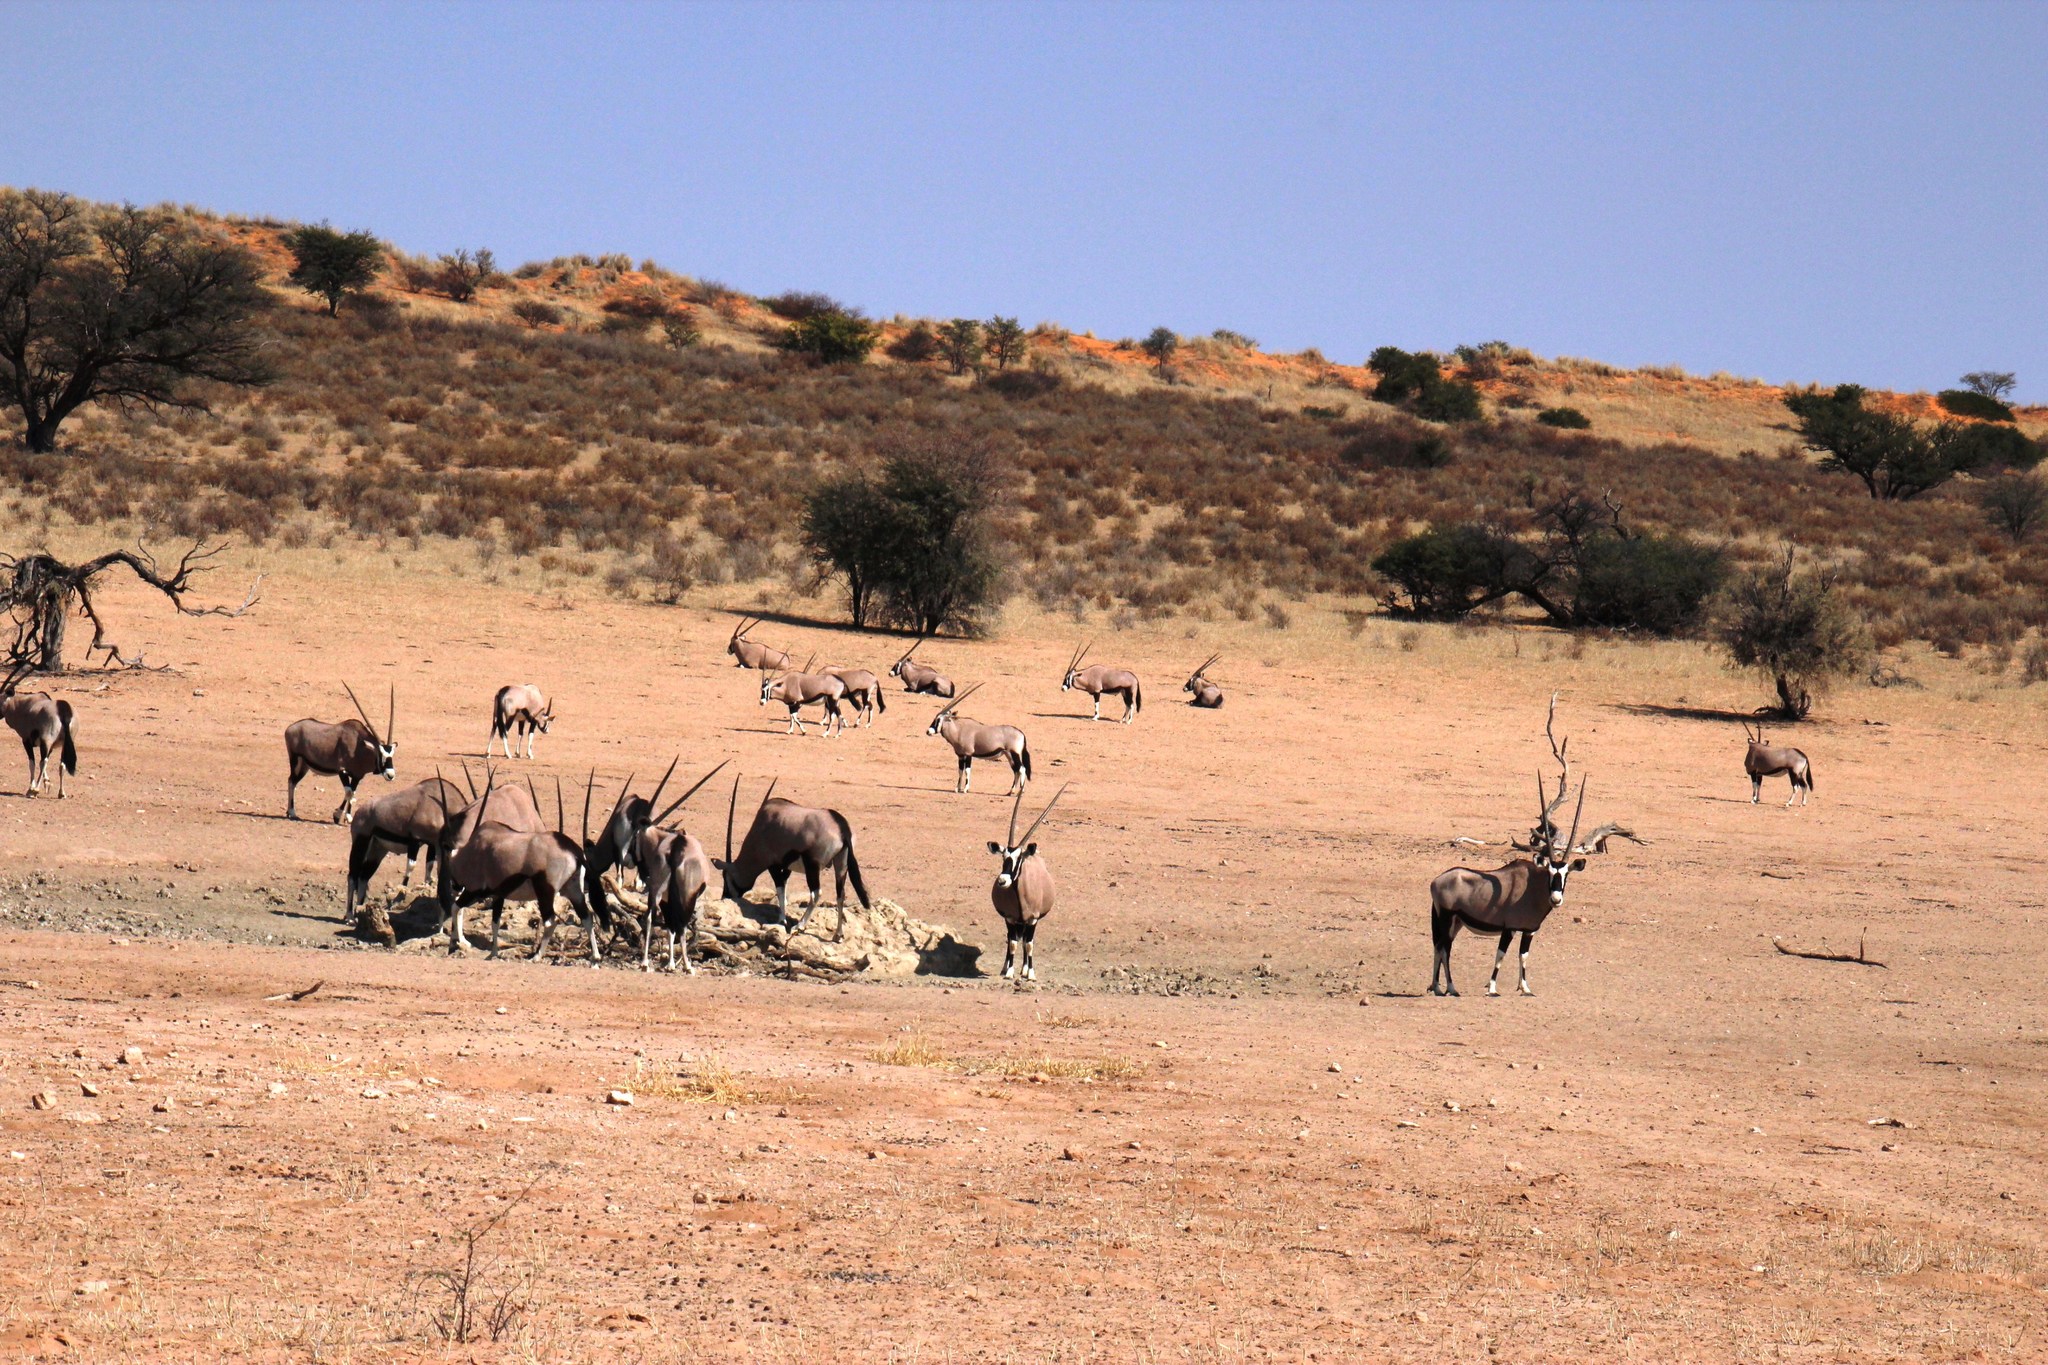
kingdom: Animalia
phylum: Chordata
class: Mammalia
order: Artiodactyla
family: Bovidae
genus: Oryx
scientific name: Oryx gazella
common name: Gemsbok
